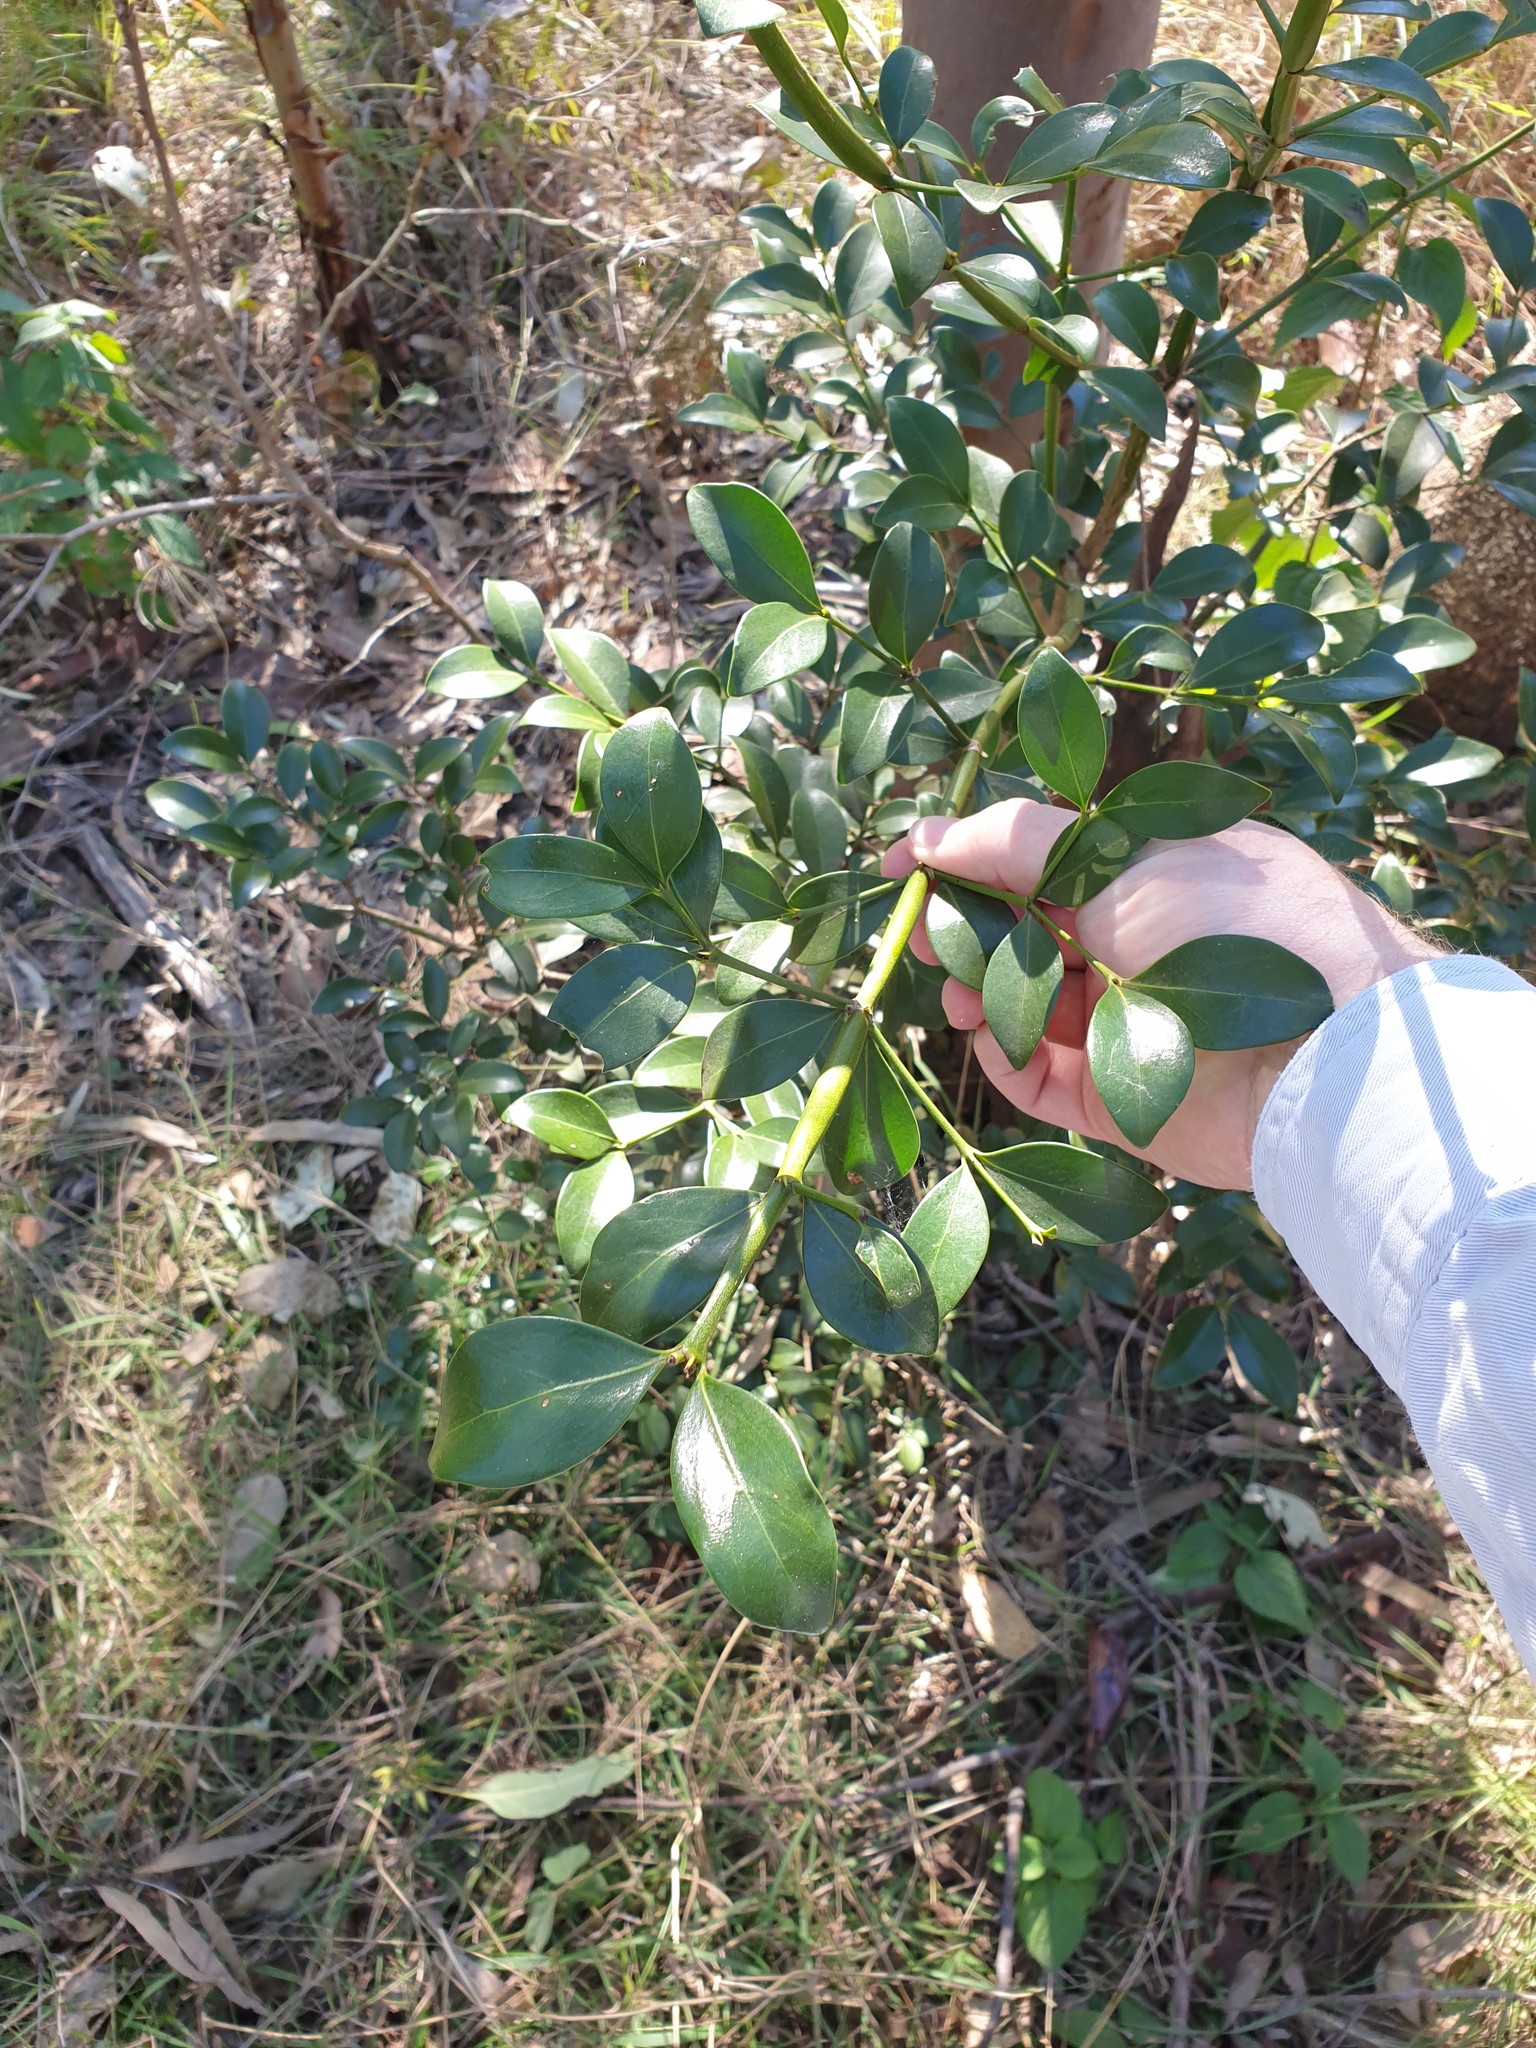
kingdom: Plantae
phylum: Tracheophyta
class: Magnoliopsida
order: Gentianales
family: Rubiaceae
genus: Psydrax
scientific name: Psydrax odoratus
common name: Alahe'e
